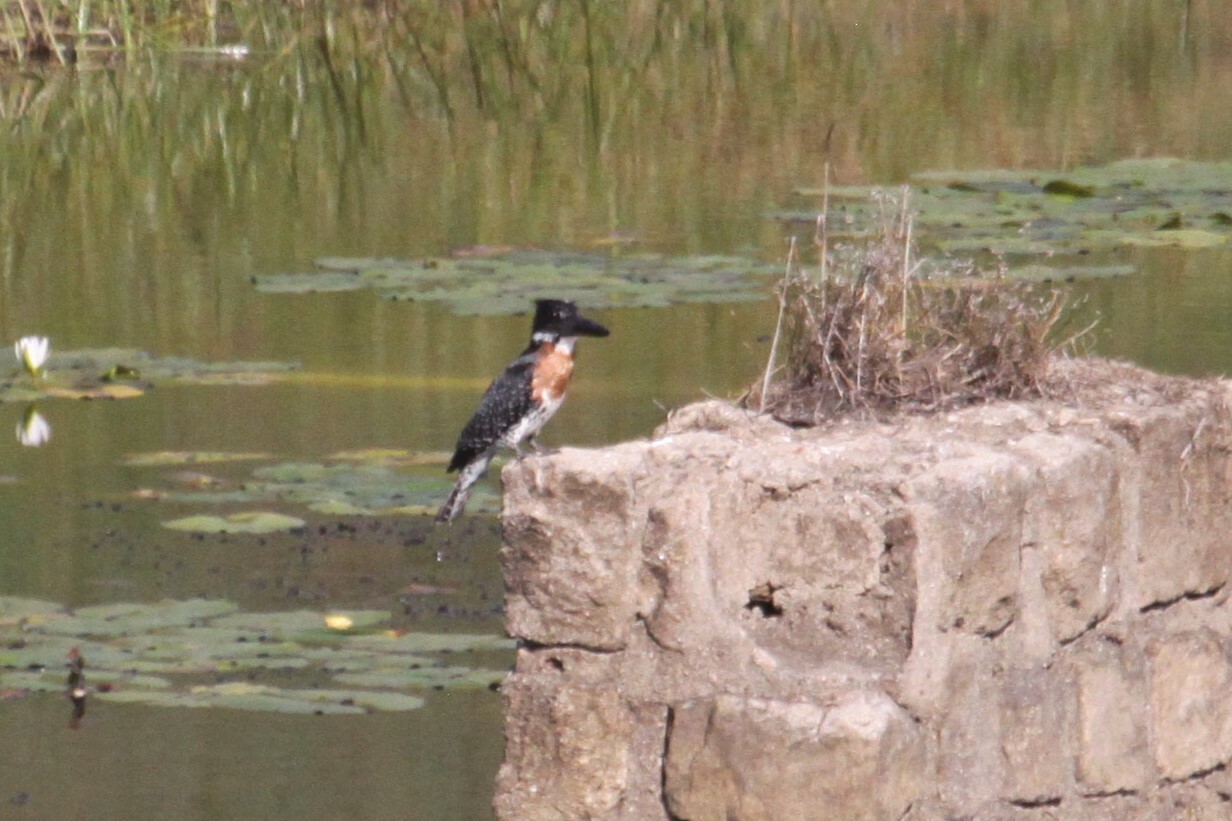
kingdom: Animalia
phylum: Chordata
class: Aves
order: Coraciiformes
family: Alcedinidae
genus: Megaceryle
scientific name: Megaceryle maxima
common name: Giant kingfisher
